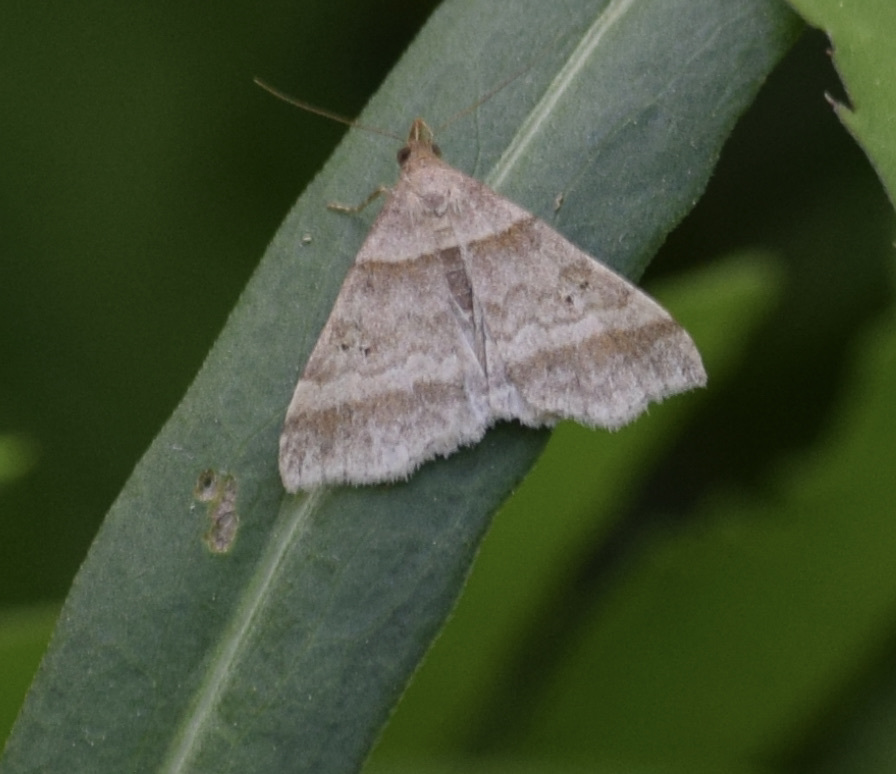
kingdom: Animalia
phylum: Arthropoda
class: Insecta
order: Lepidoptera
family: Erebidae
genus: Phaeolita
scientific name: Phaeolita pyramusalis
